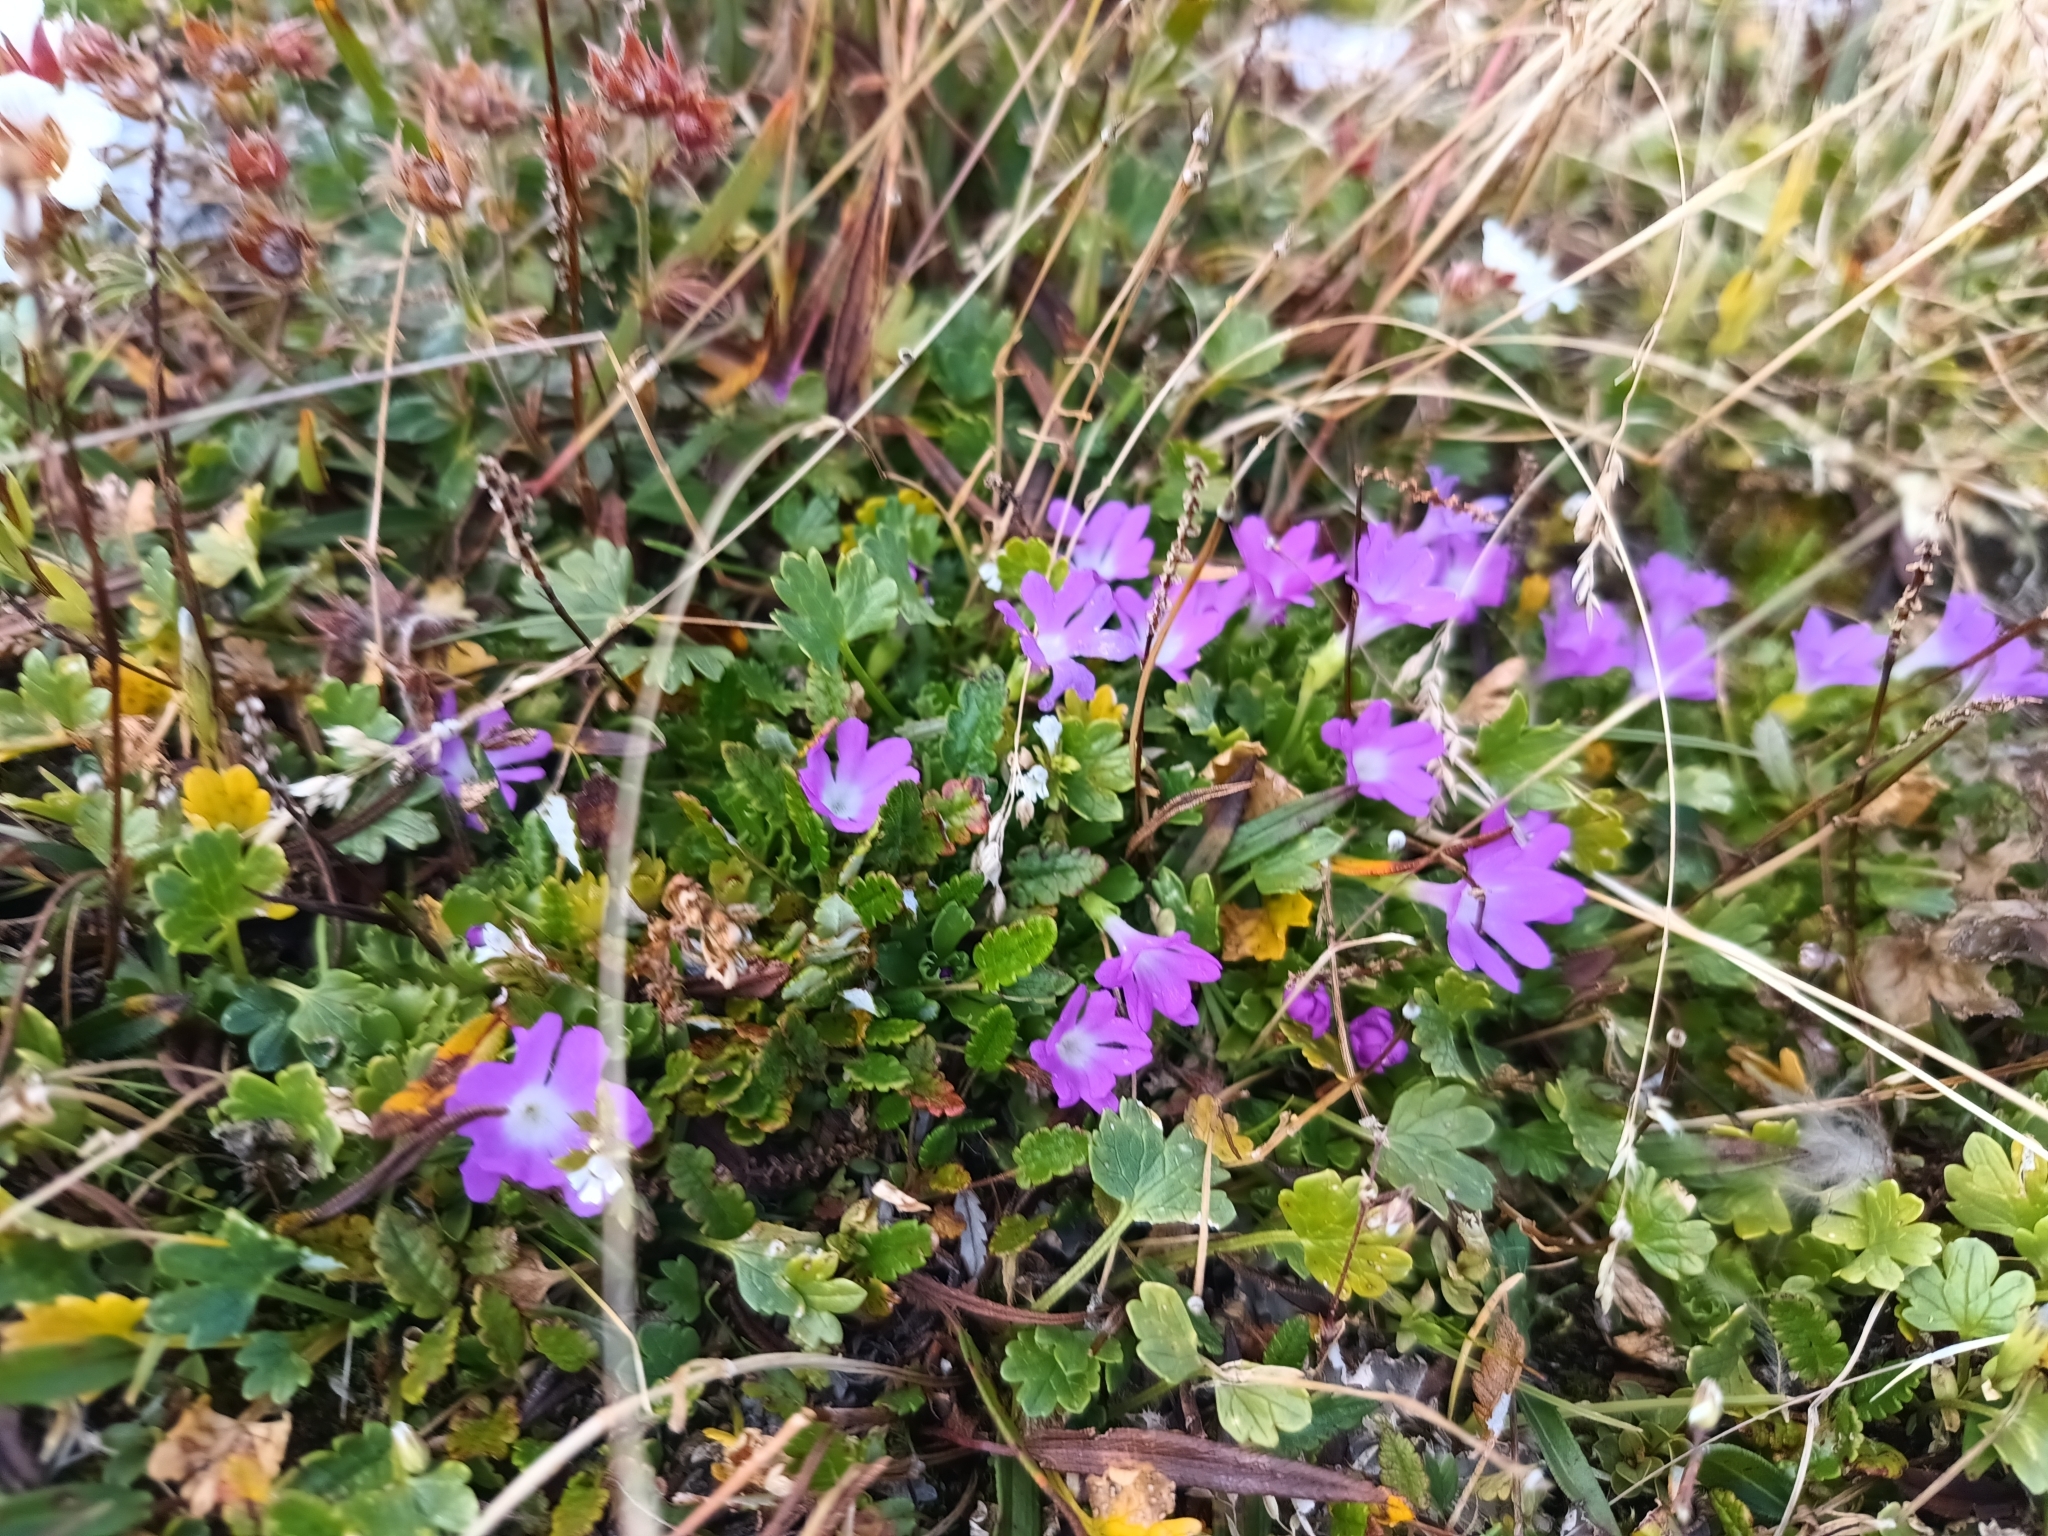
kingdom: Plantae
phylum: Tracheophyta
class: Magnoliopsida
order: Ericales
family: Primulaceae
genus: Primula
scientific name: Primula minima
